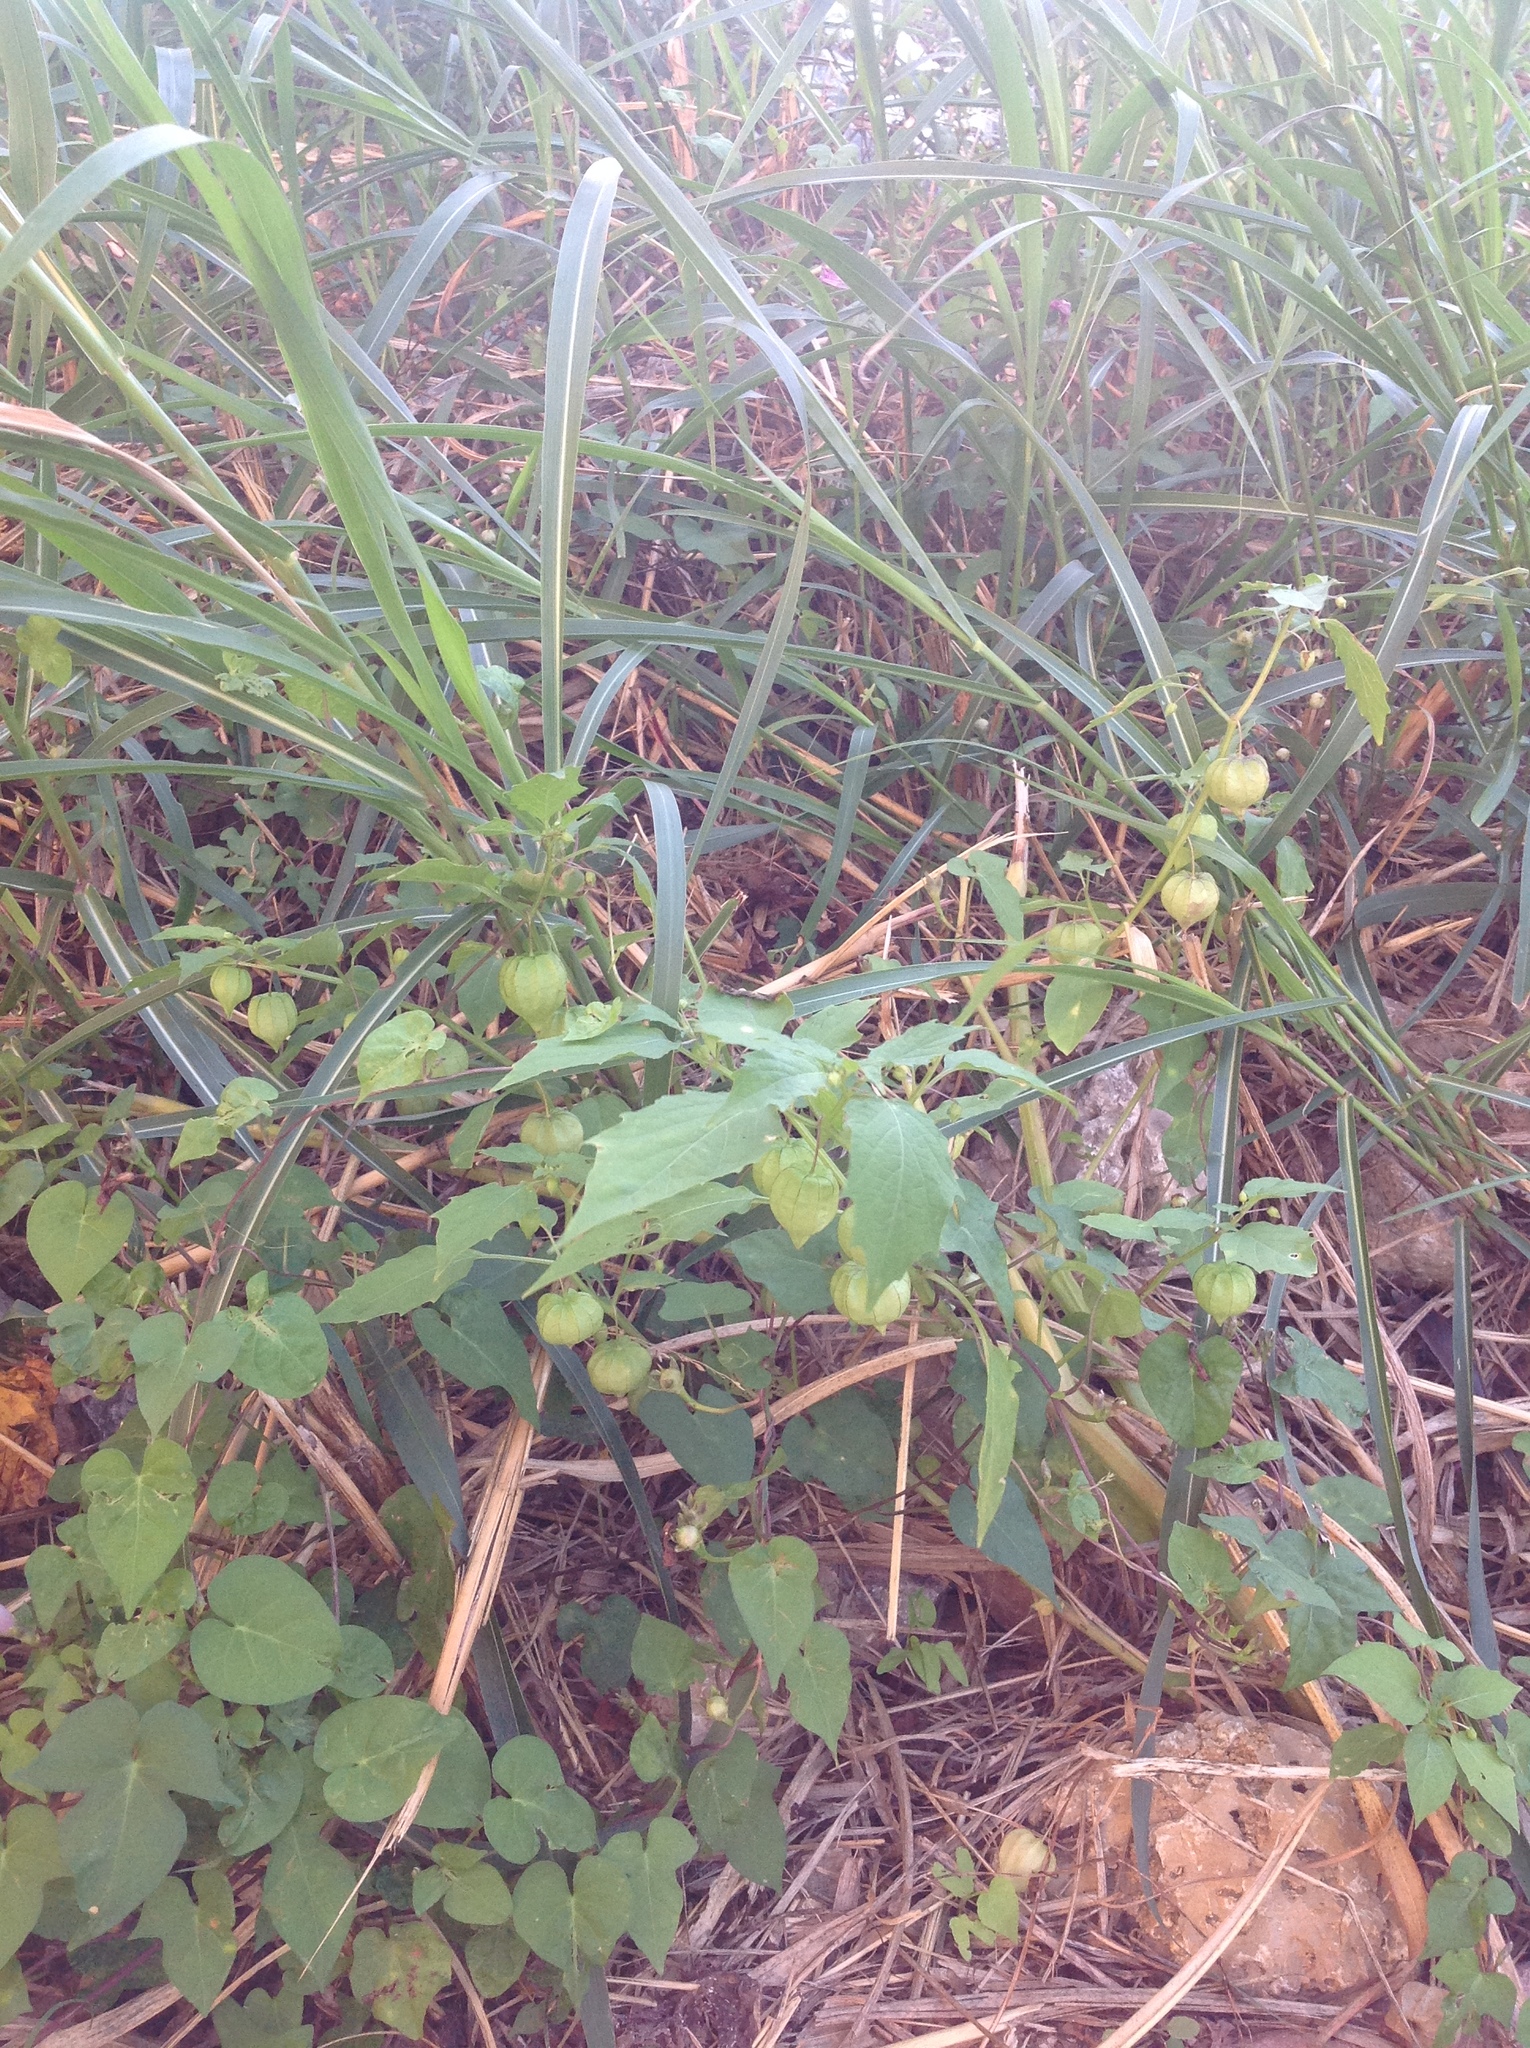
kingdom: Plantae
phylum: Tracheophyta
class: Magnoliopsida
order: Sapindales
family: Sapindaceae
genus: Cardiospermum
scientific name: Cardiospermum halicacabum
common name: Balloon vine
